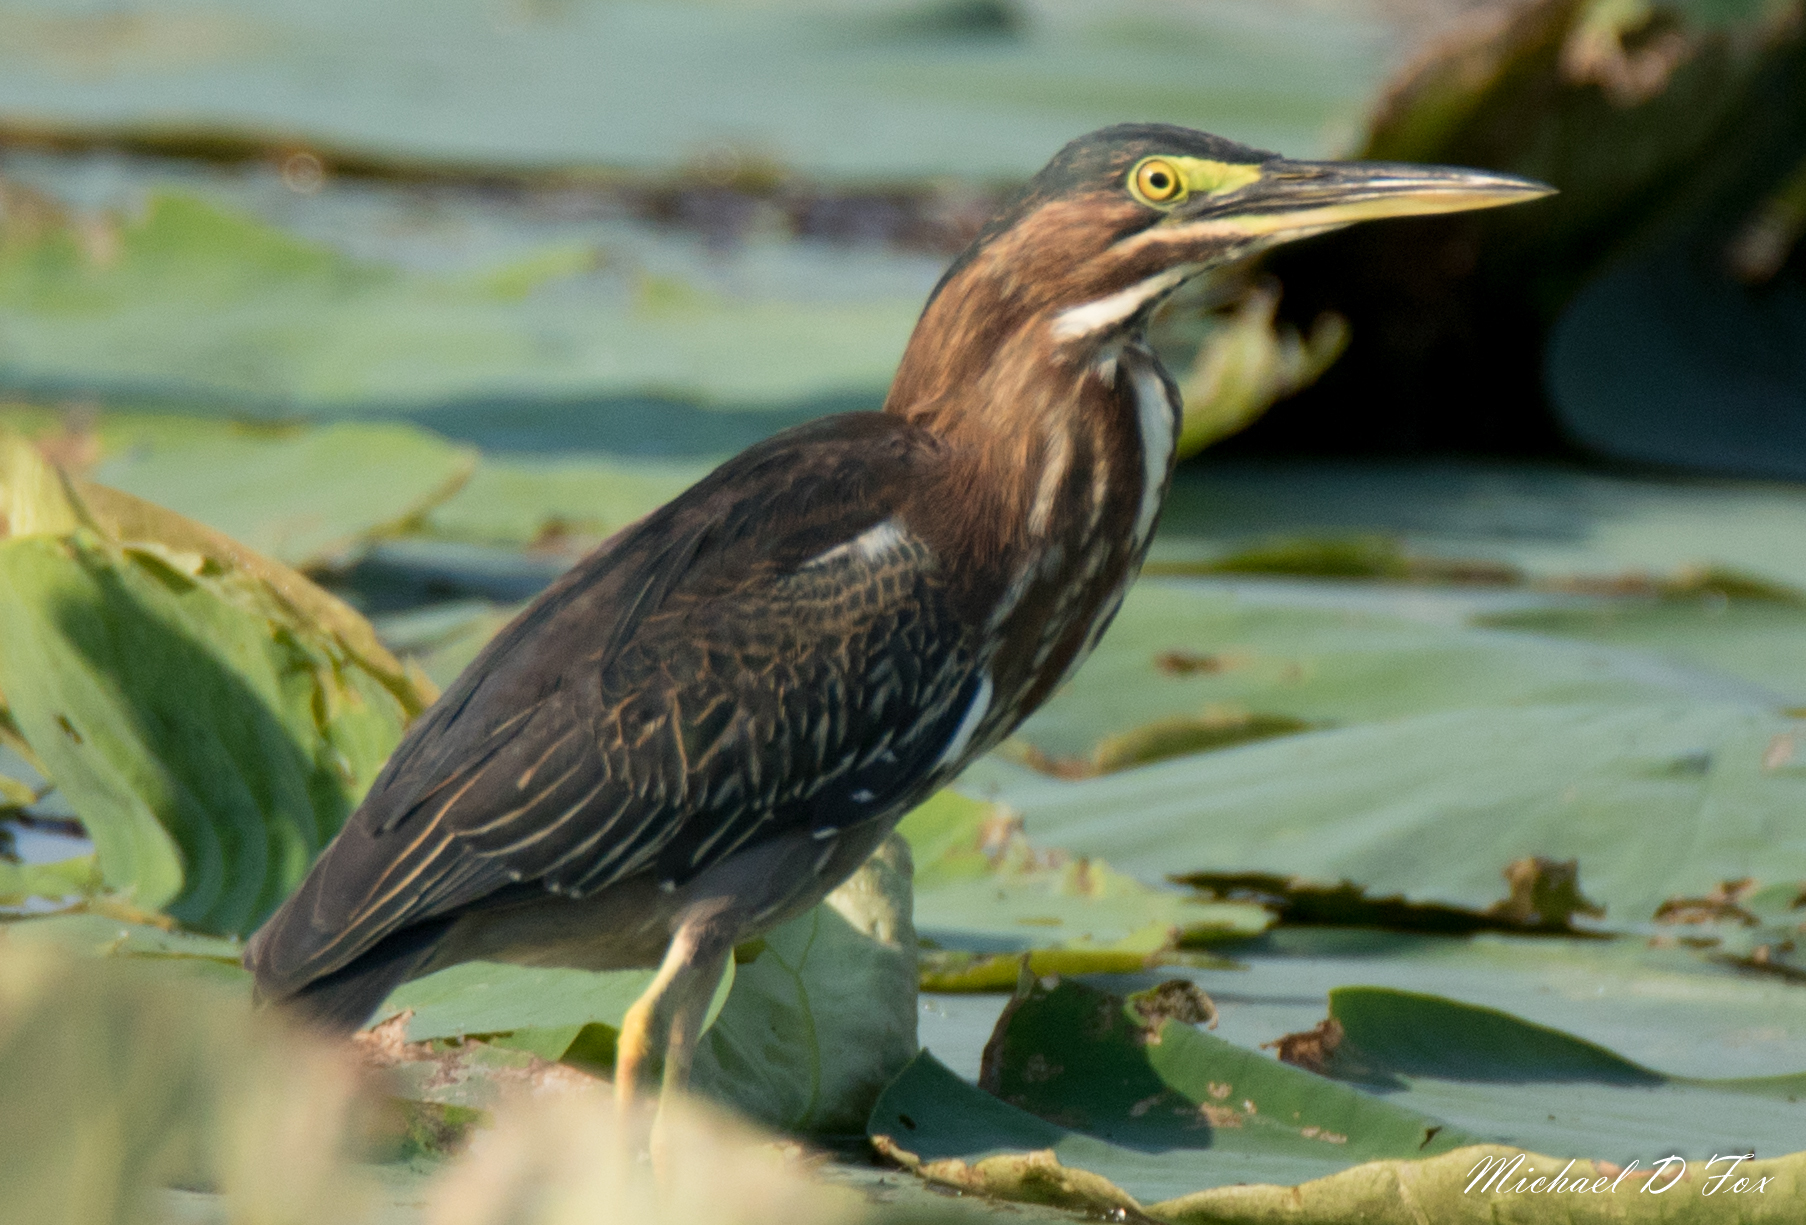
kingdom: Animalia
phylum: Chordata
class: Aves
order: Pelecaniformes
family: Ardeidae
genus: Butorides
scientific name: Butorides virescens
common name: Green heron
